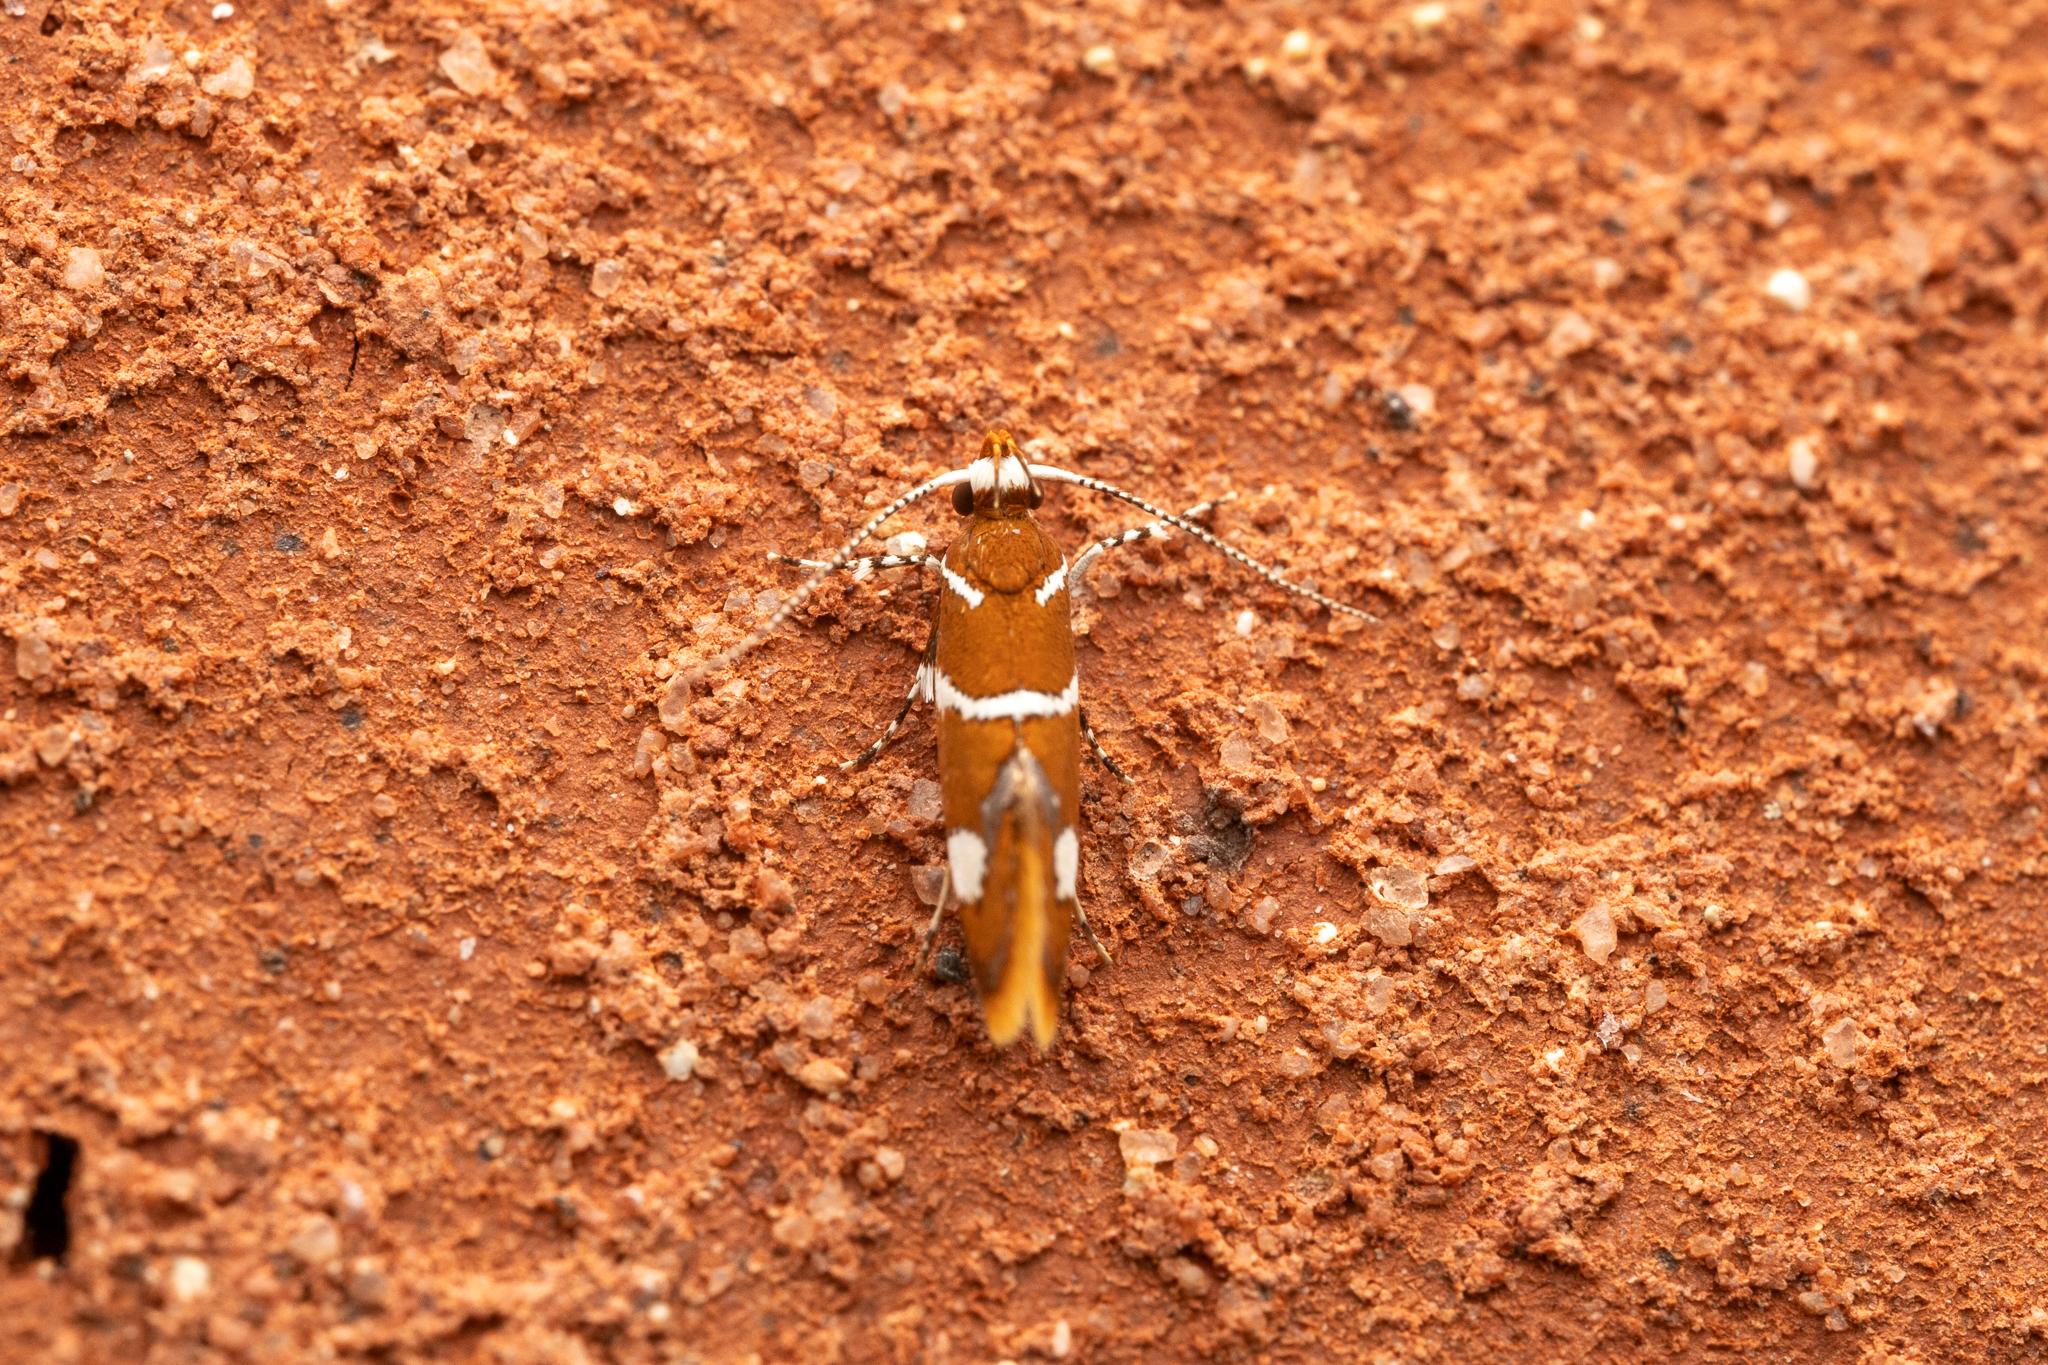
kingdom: Animalia
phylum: Arthropoda
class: Insecta
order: Lepidoptera
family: Oecophoridae
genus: Promalactis
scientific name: Promalactis suzukiella
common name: Moth
